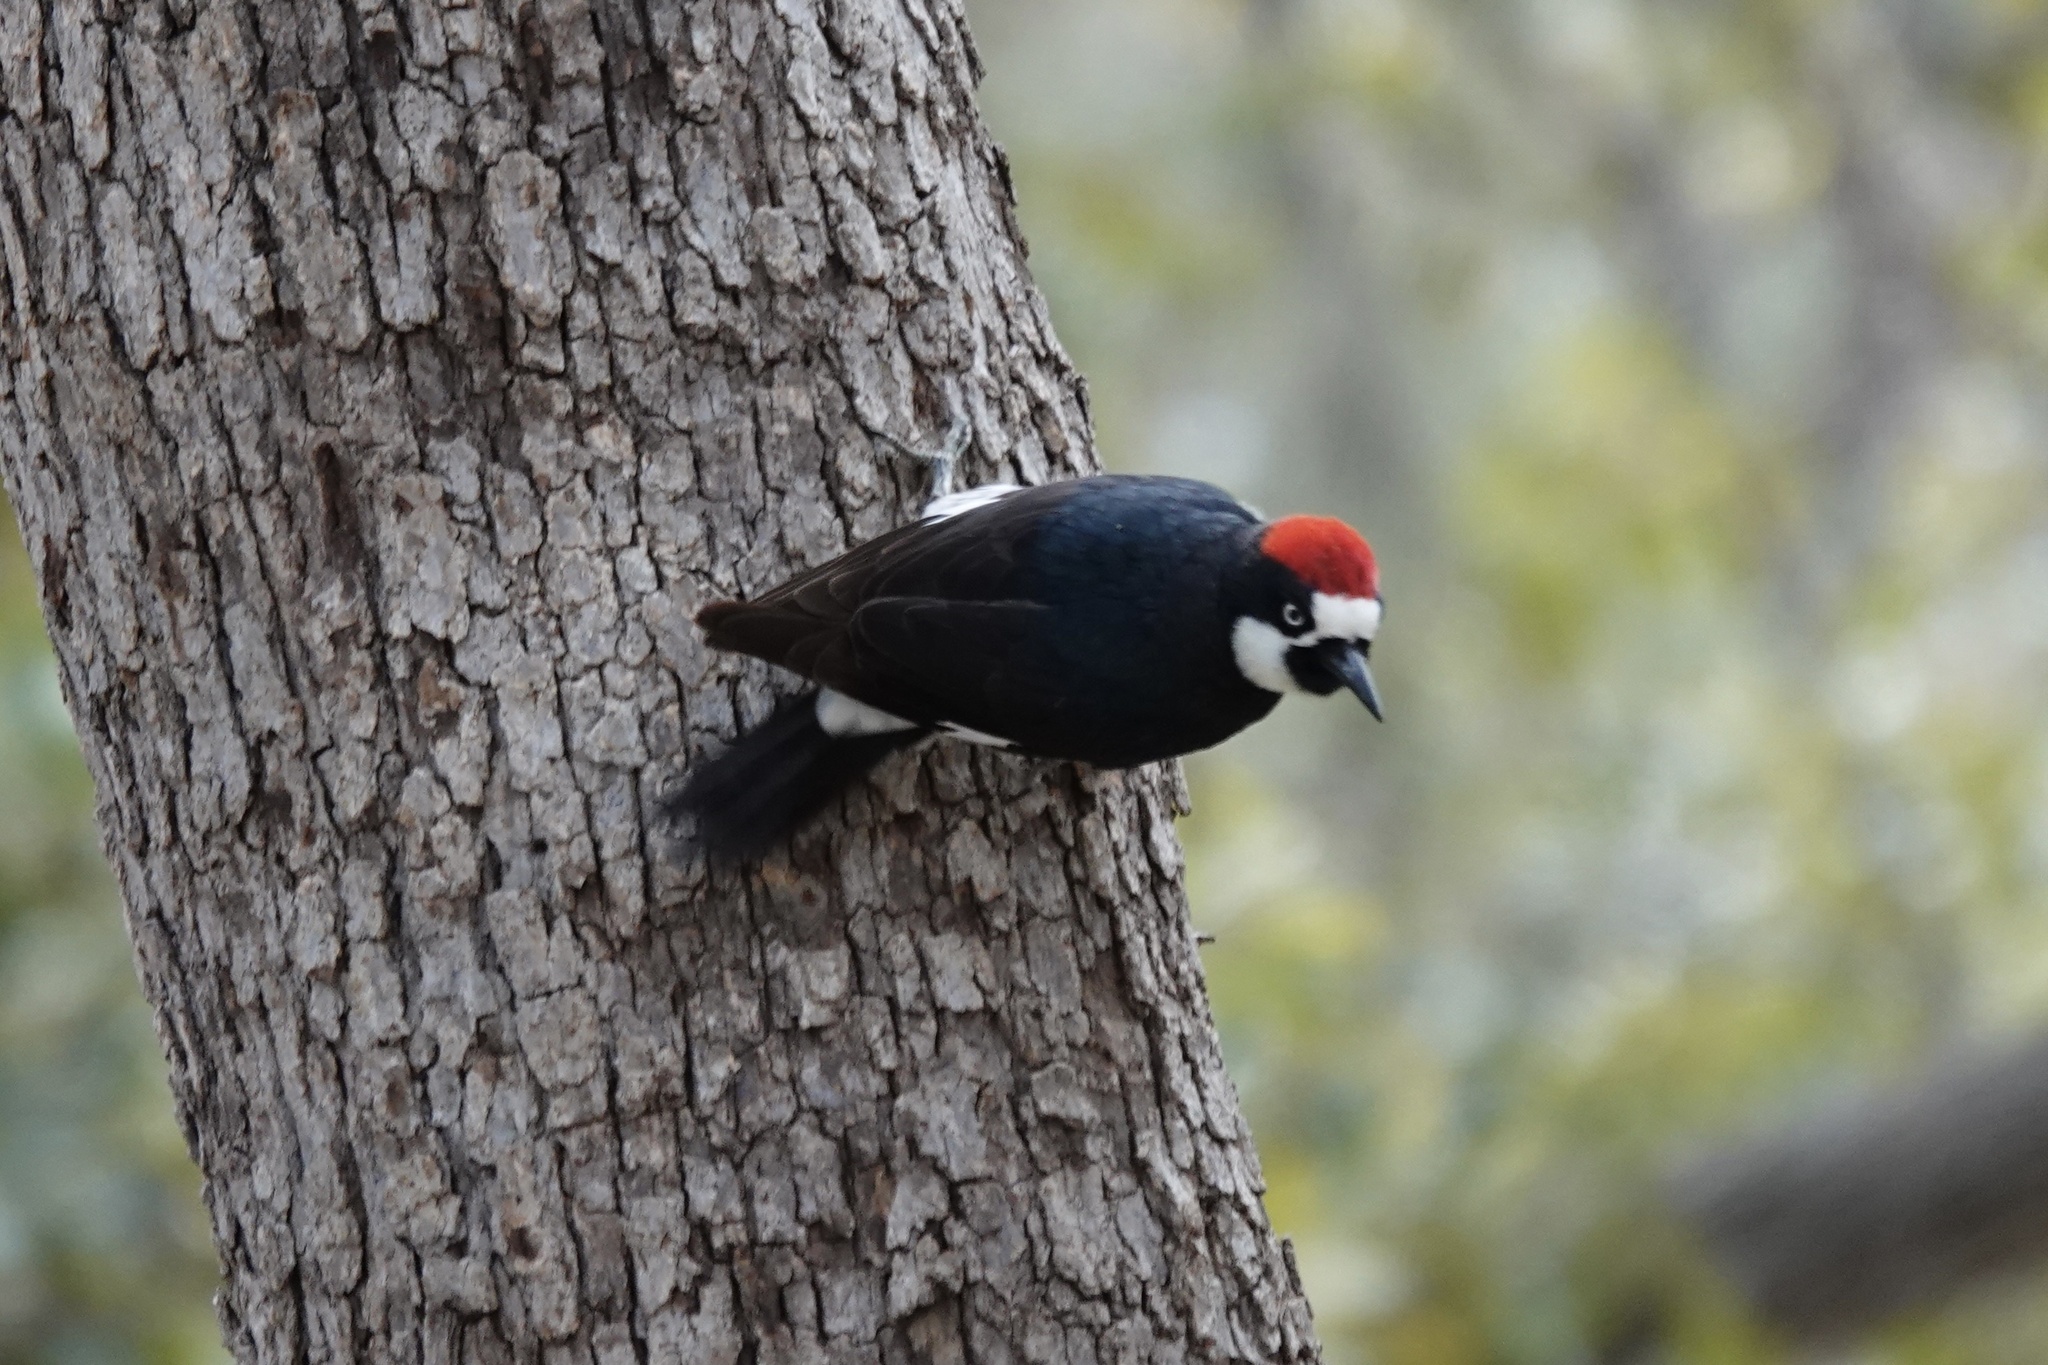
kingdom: Animalia
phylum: Chordata
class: Aves
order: Piciformes
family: Picidae
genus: Melanerpes
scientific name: Melanerpes formicivorus
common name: Acorn woodpecker
